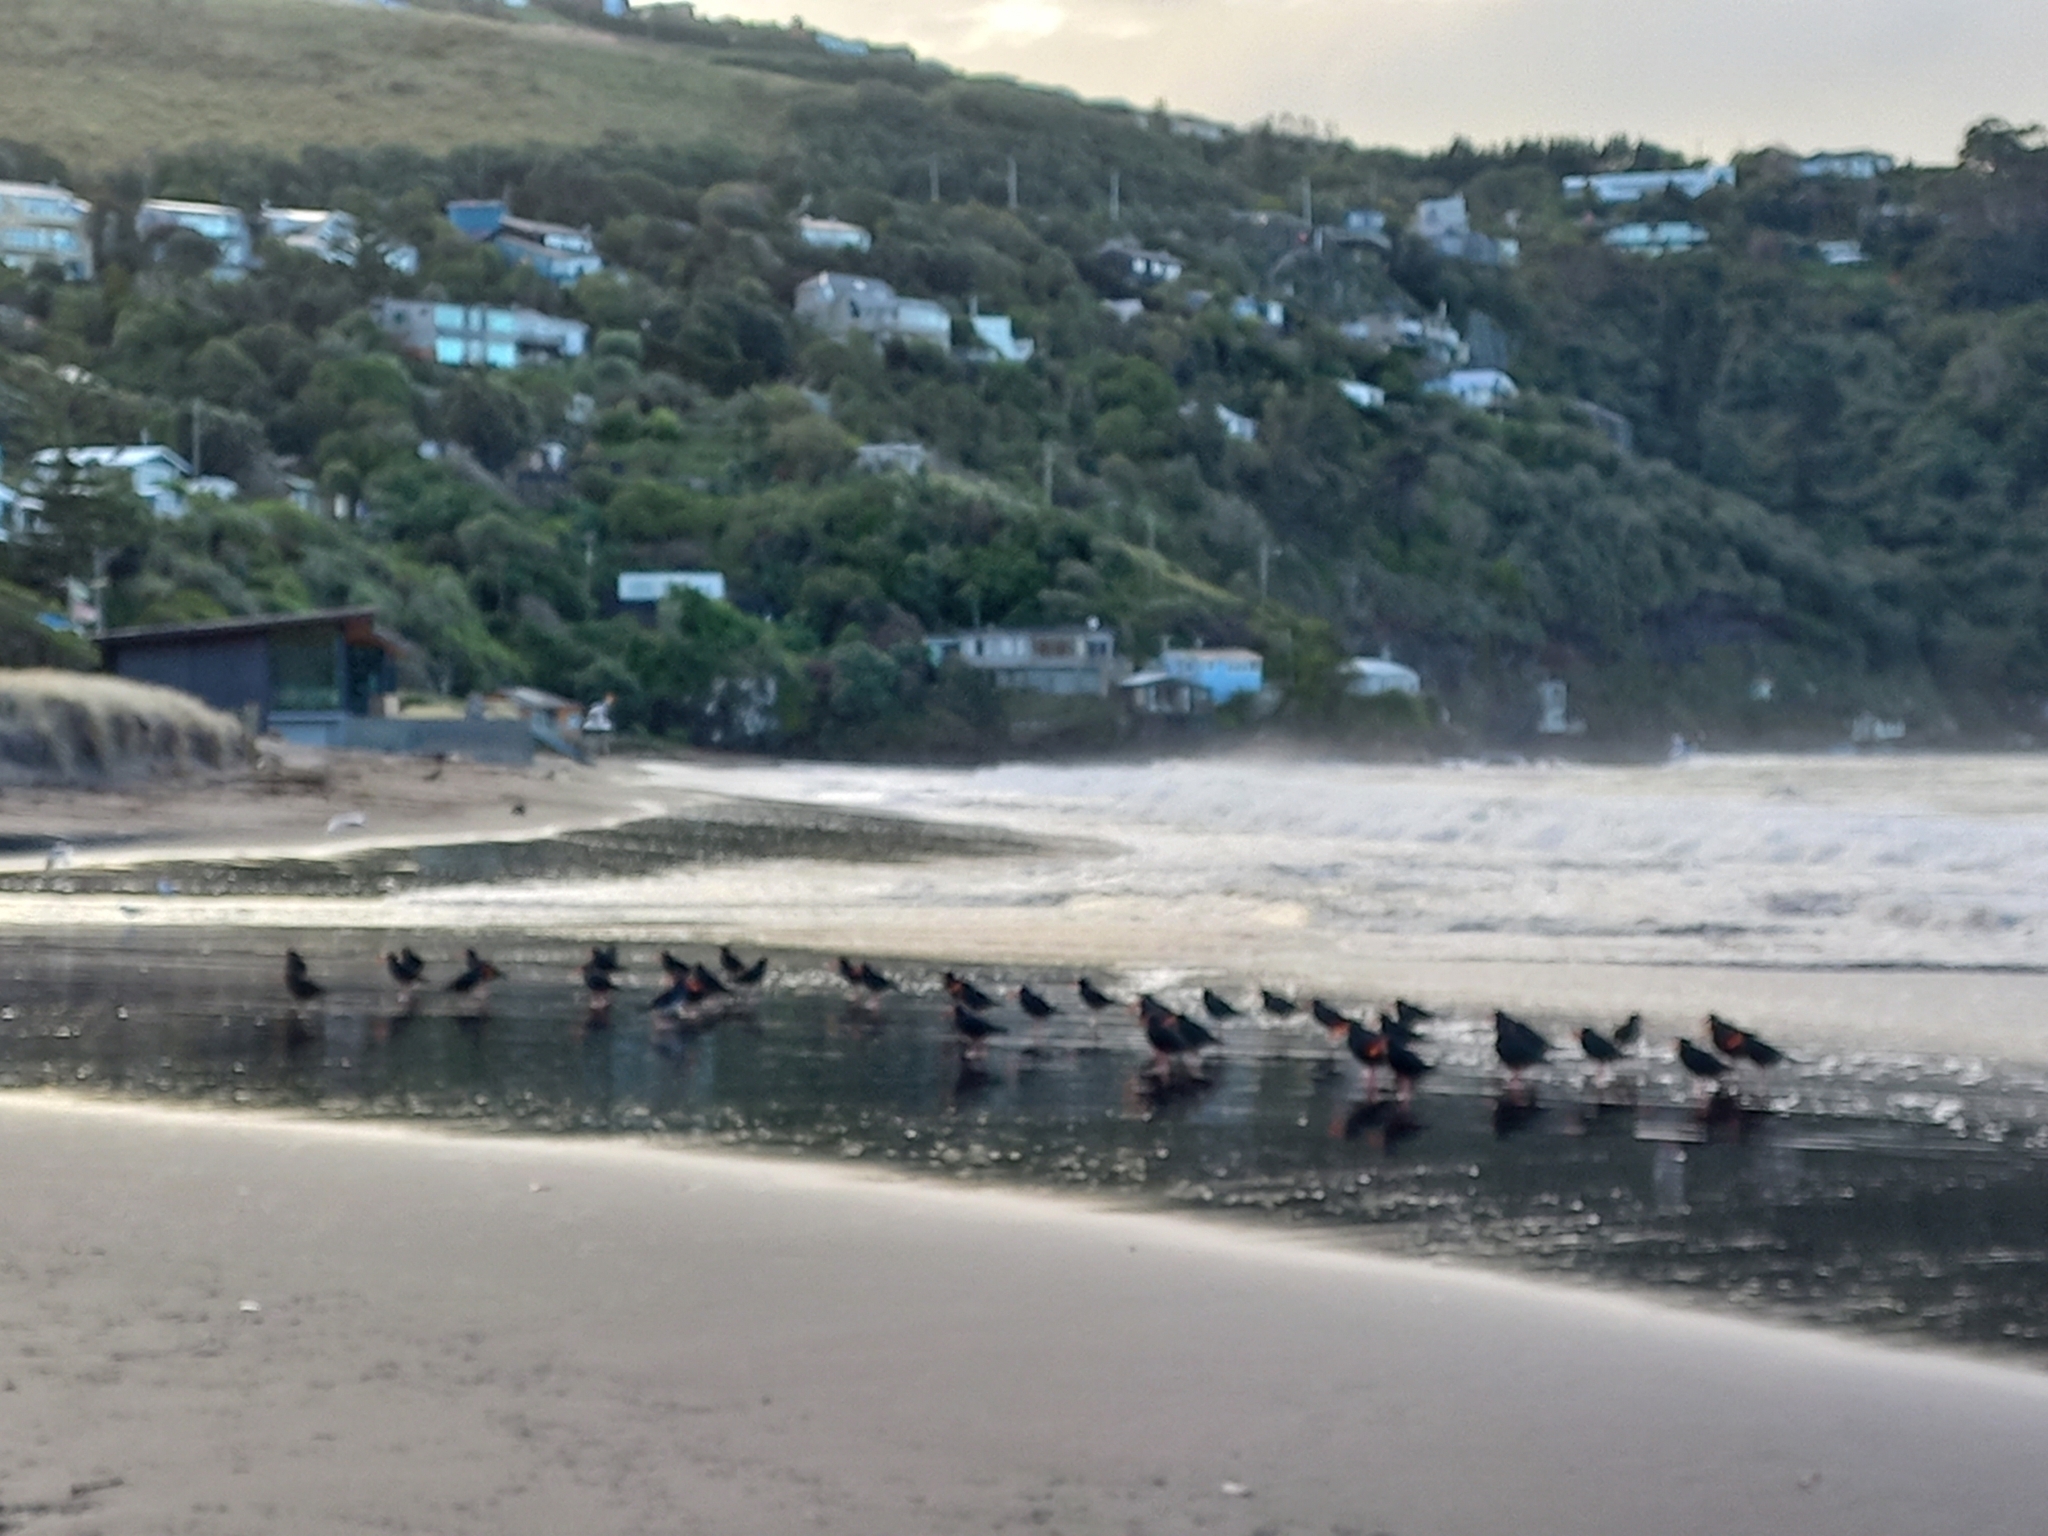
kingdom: Animalia
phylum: Chordata
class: Aves
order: Charadriiformes
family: Haematopodidae
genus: Haematopus
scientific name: Haematopus unicolor
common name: Variable oystercatcher
